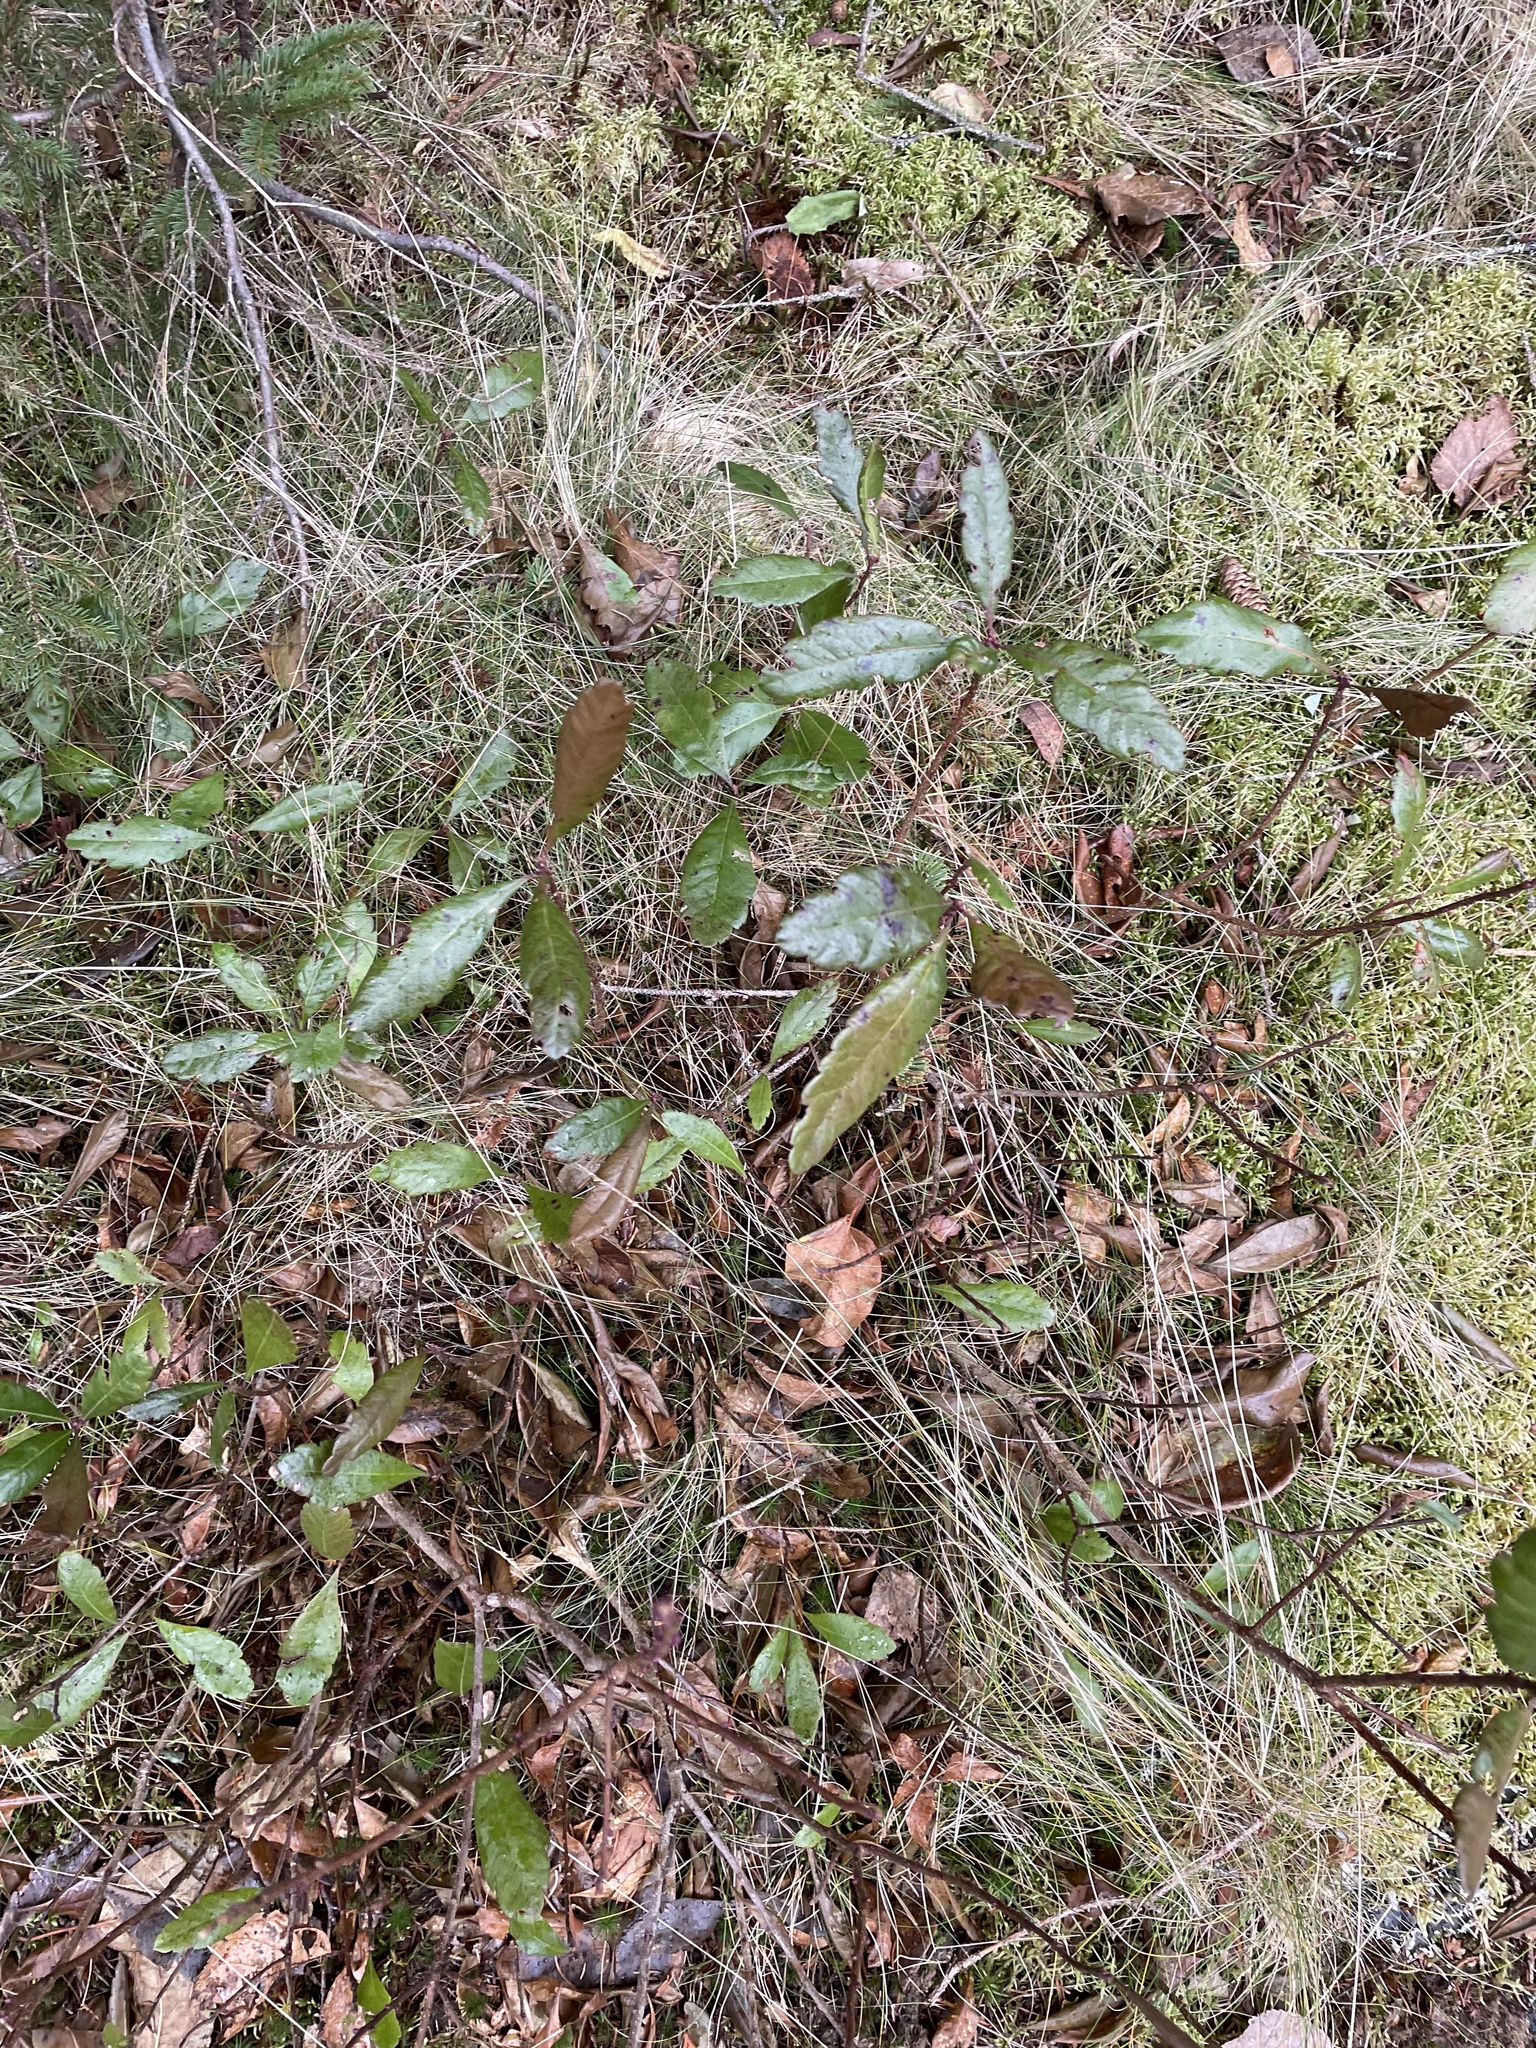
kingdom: Plantae
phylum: Tracheophyta
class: Magnoliopsida
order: Fagales
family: Myricaceae
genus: Morella
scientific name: Morella pensylvanica
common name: Northern bayberry
